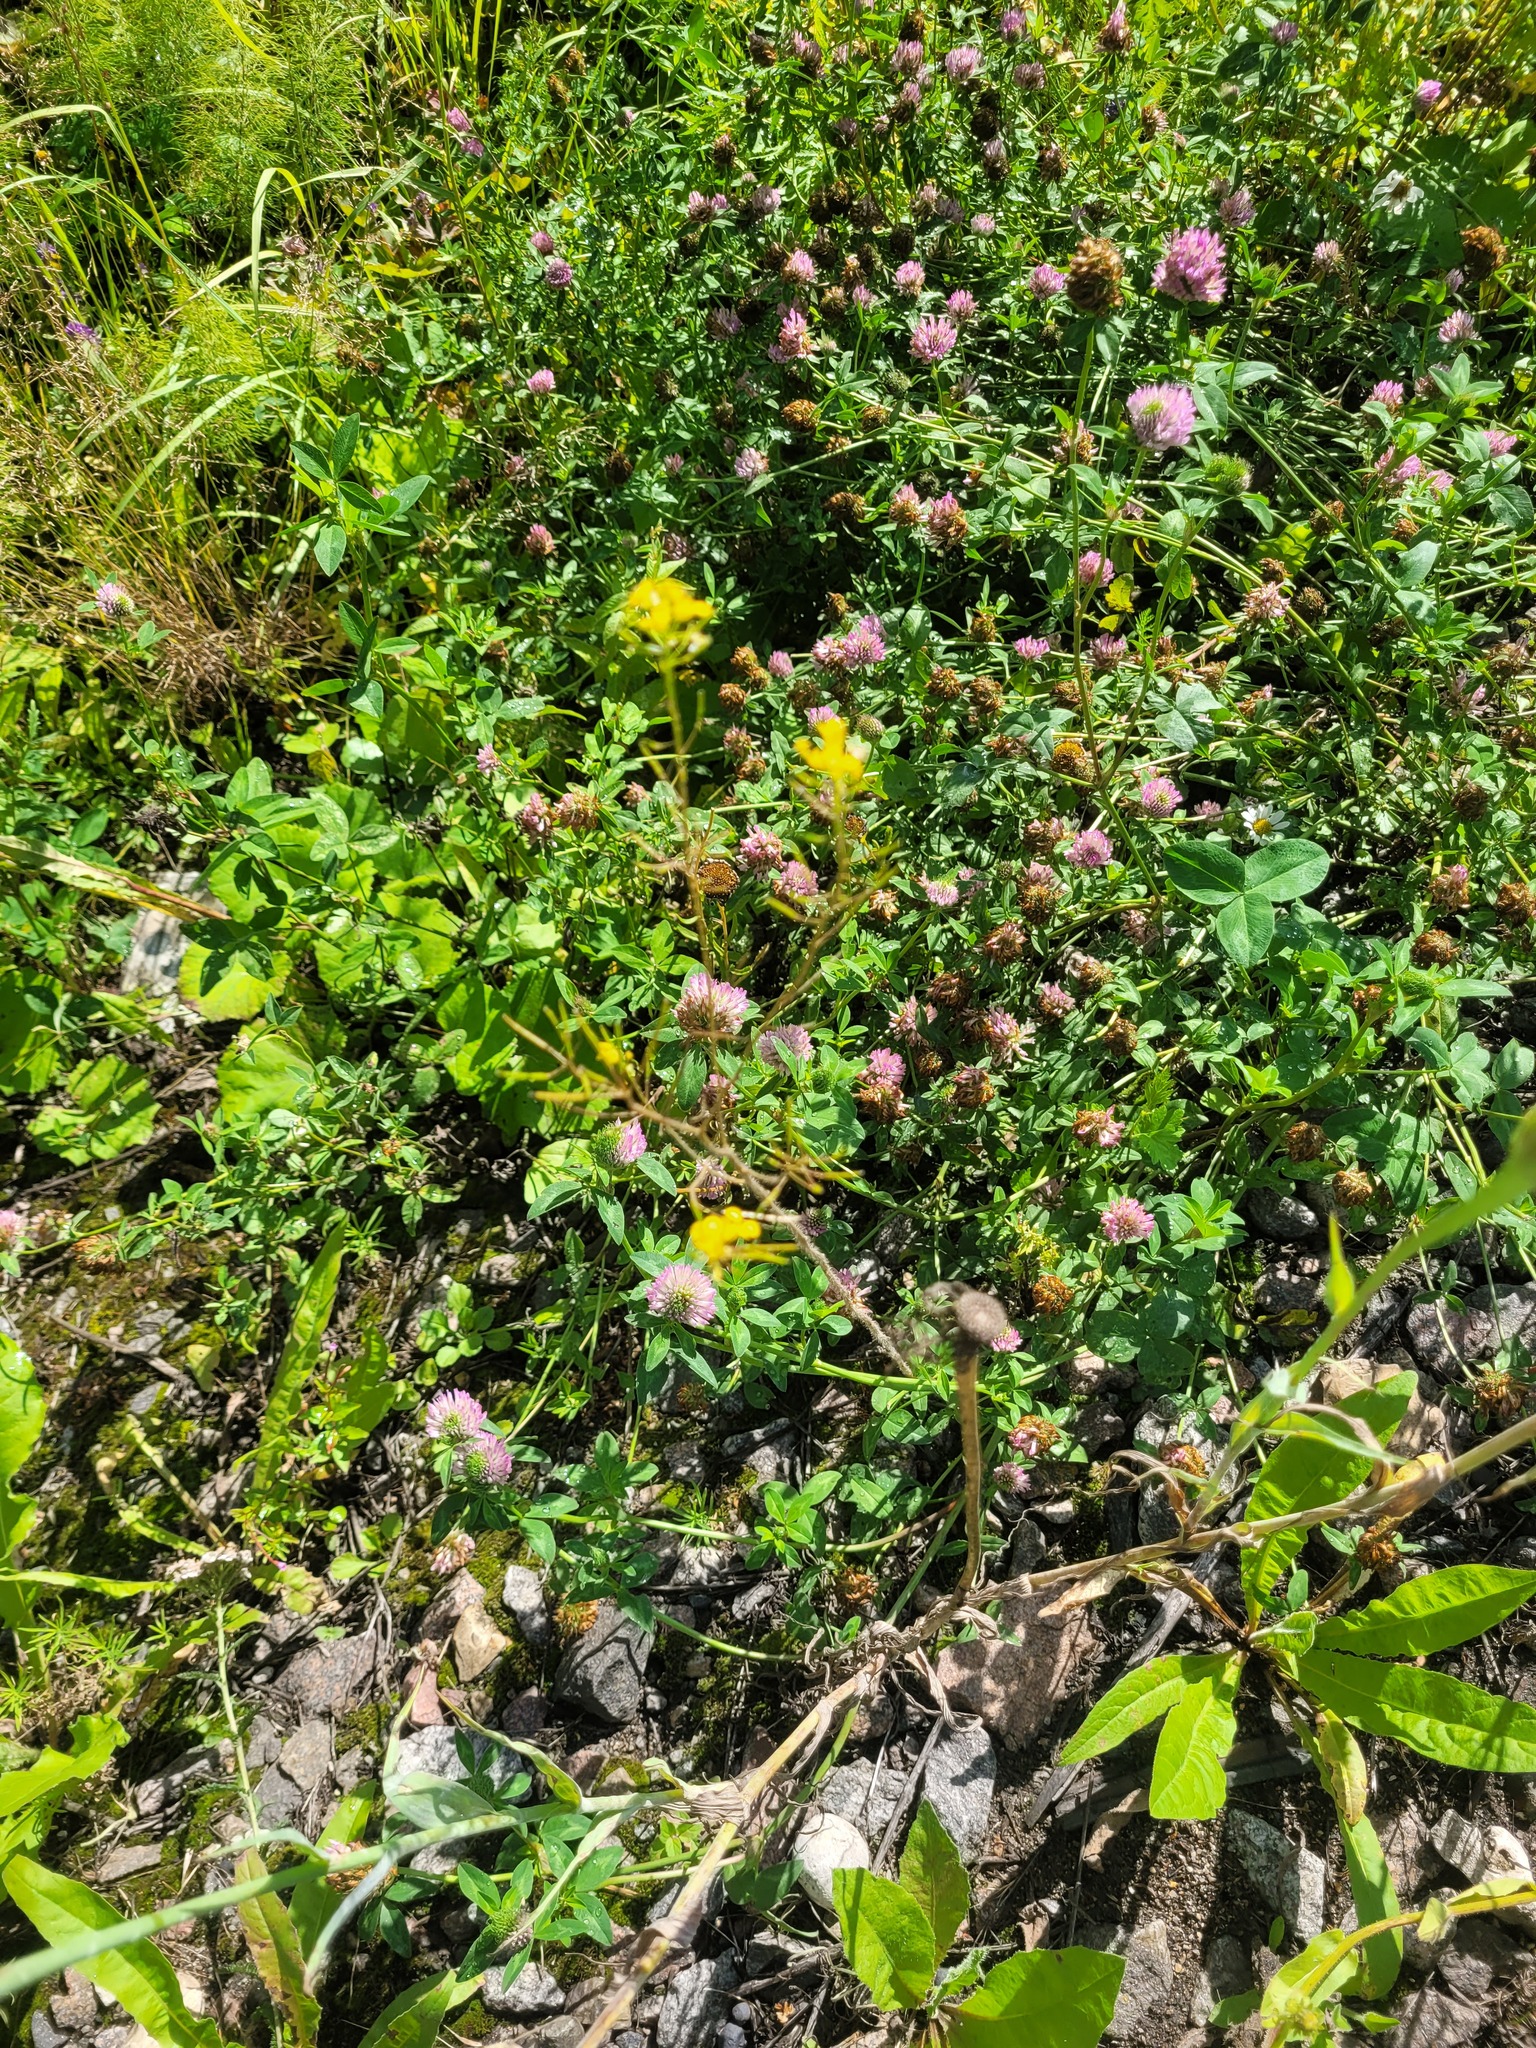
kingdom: Plantae
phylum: Tracheophyta
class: Magnoliopsida
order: Brassicales
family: Brassicaceae
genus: Sisymbrium
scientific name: Sisymbrium loeselii
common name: False london-rocket
